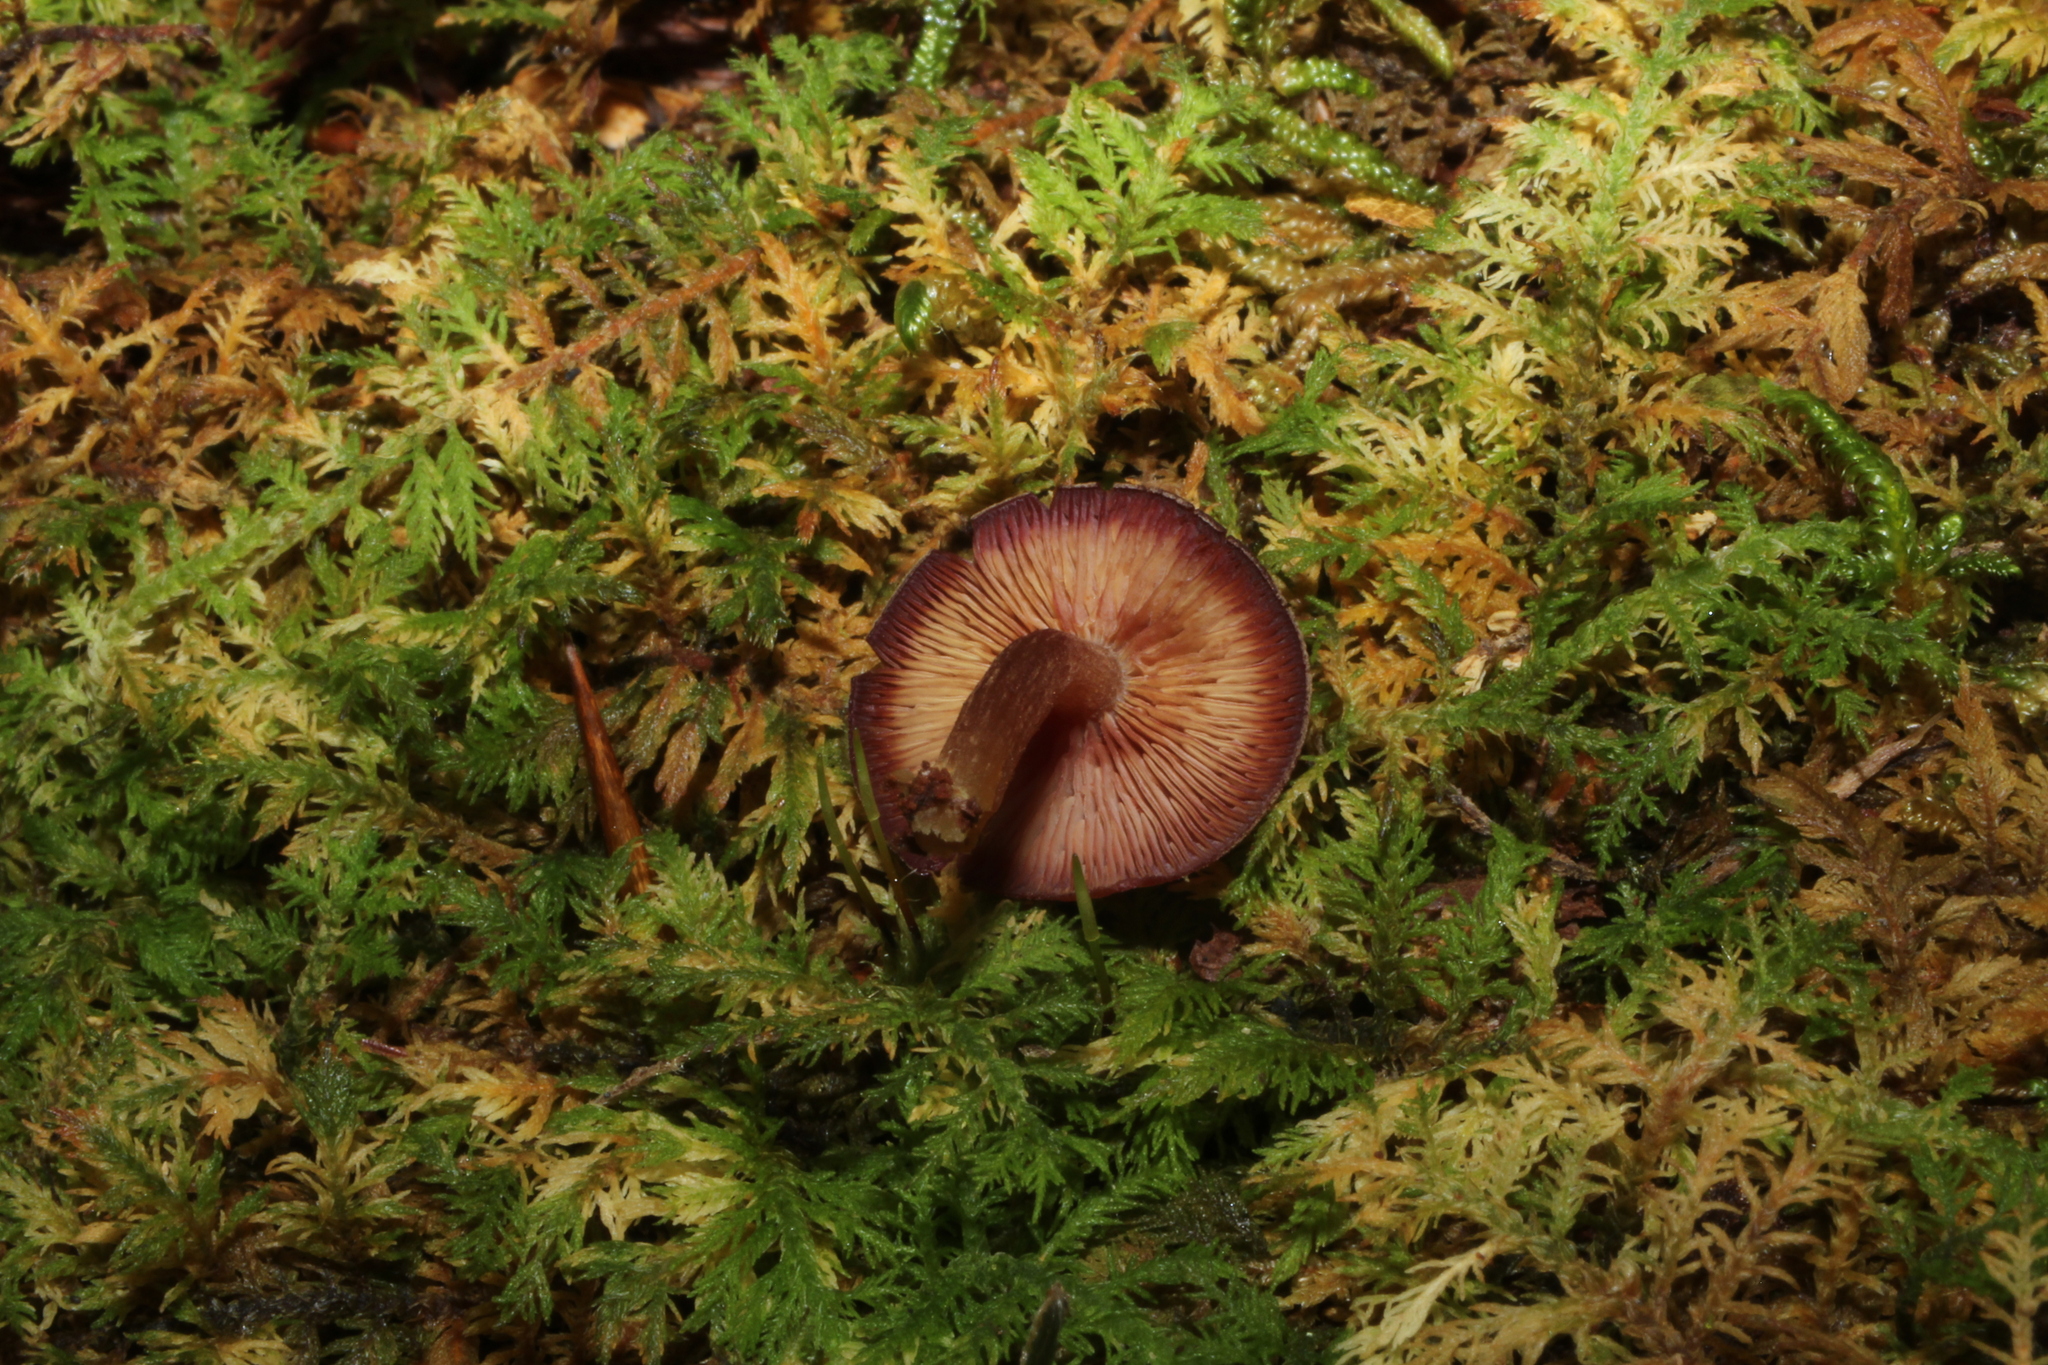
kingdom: Fungi
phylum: Basidiomycota
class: Agaricomycetes
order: Agaricales
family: Callistosporiaceae
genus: Callistosporium
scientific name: Callistosporium purpureomarginatum
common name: Purple-edged lute
